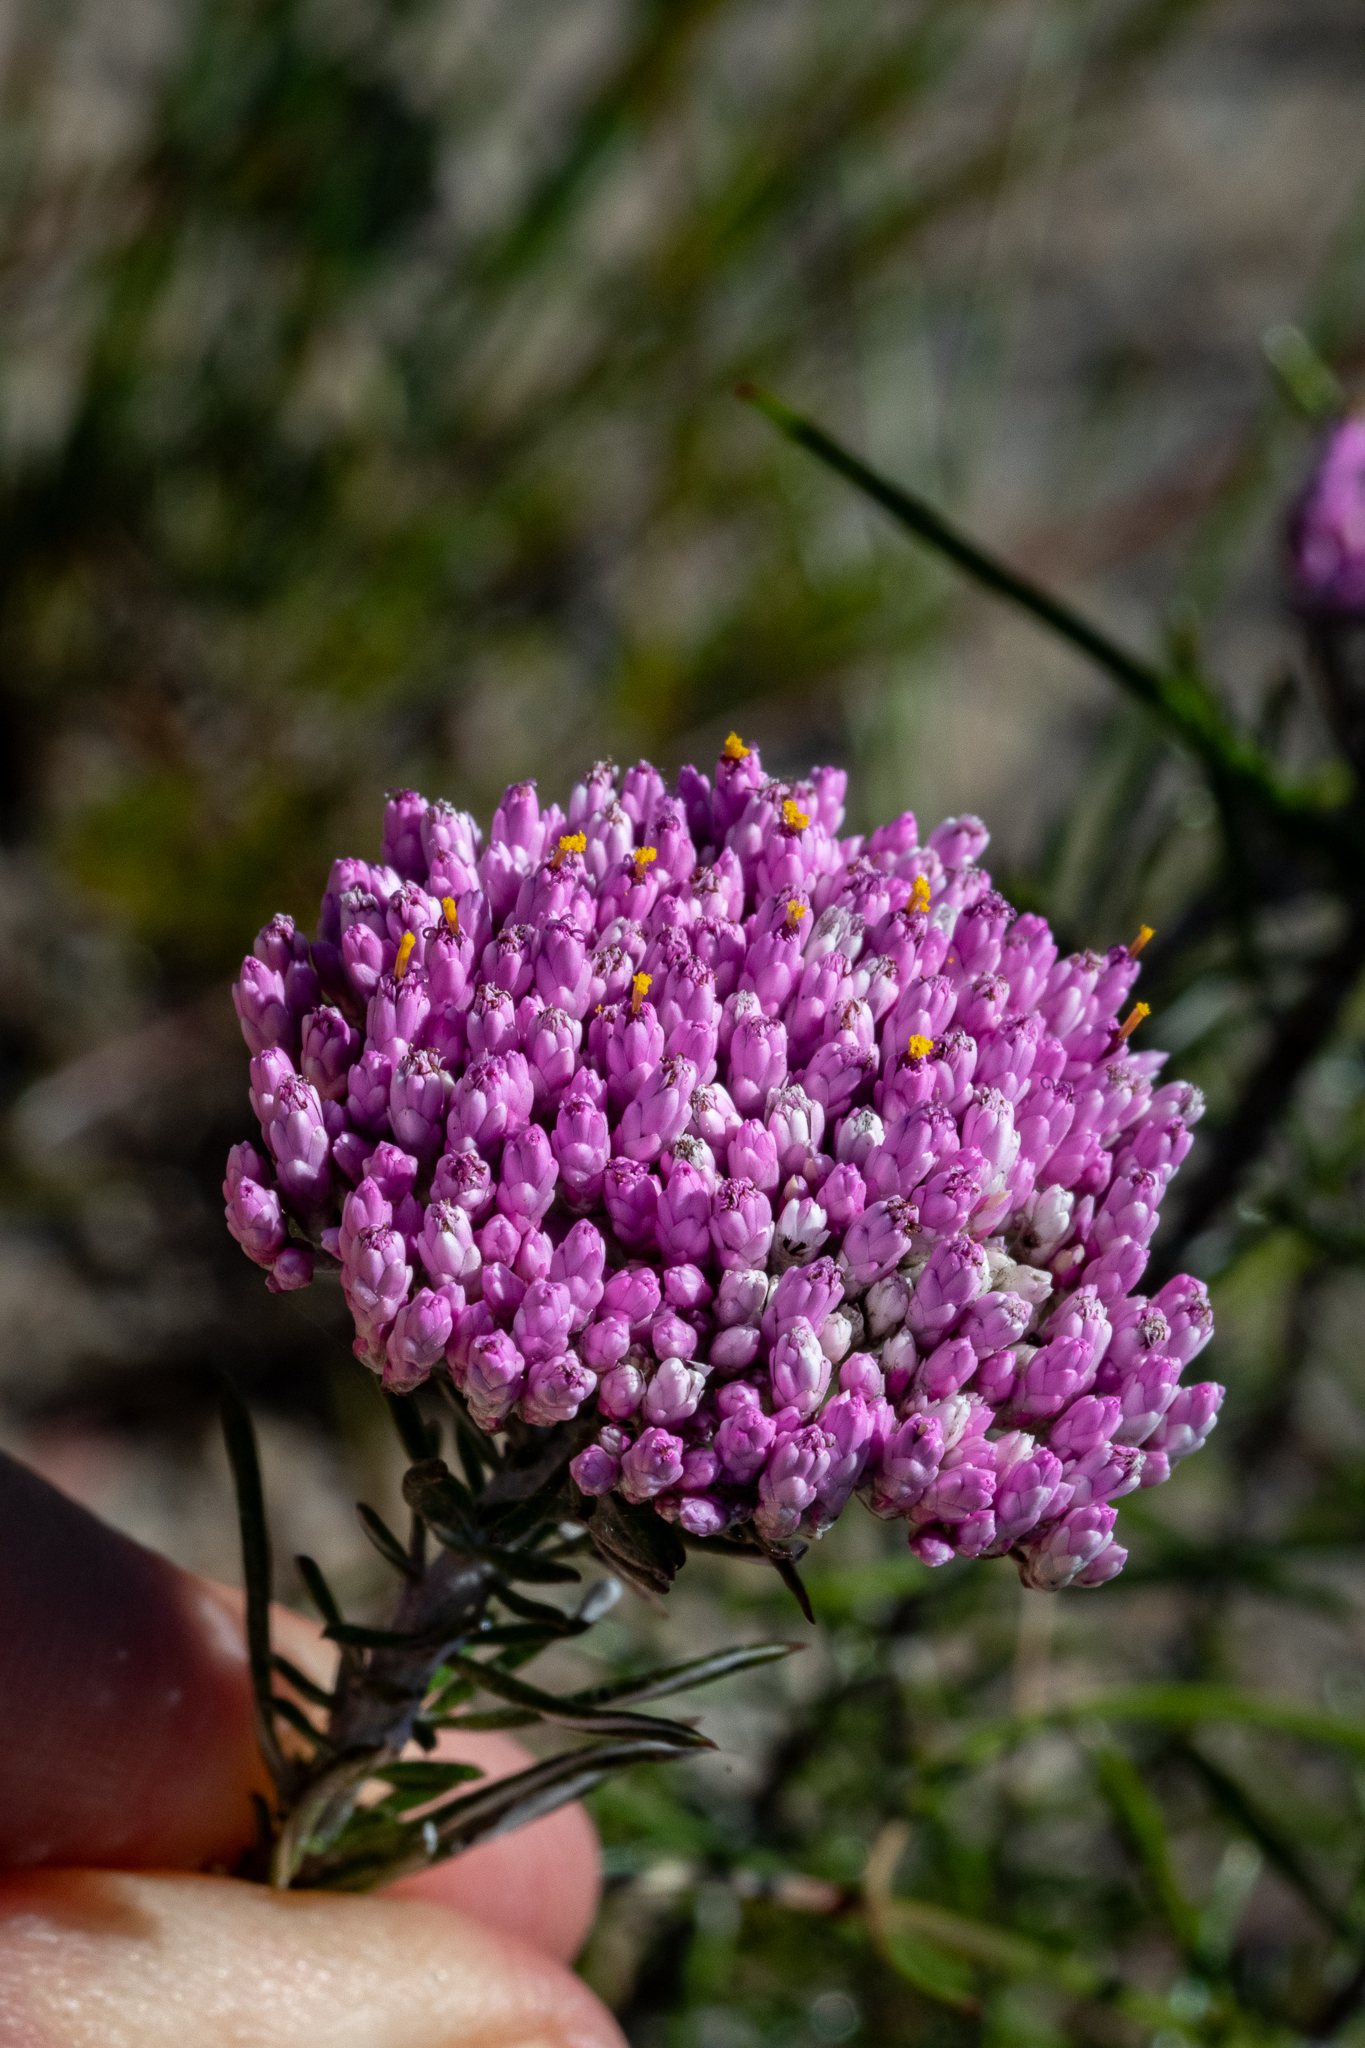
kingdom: Plantae
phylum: Tracheophyta
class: Magnoliopsida
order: Asterales
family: Asteraceae
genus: Metalasia
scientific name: Metalasia erubescens
